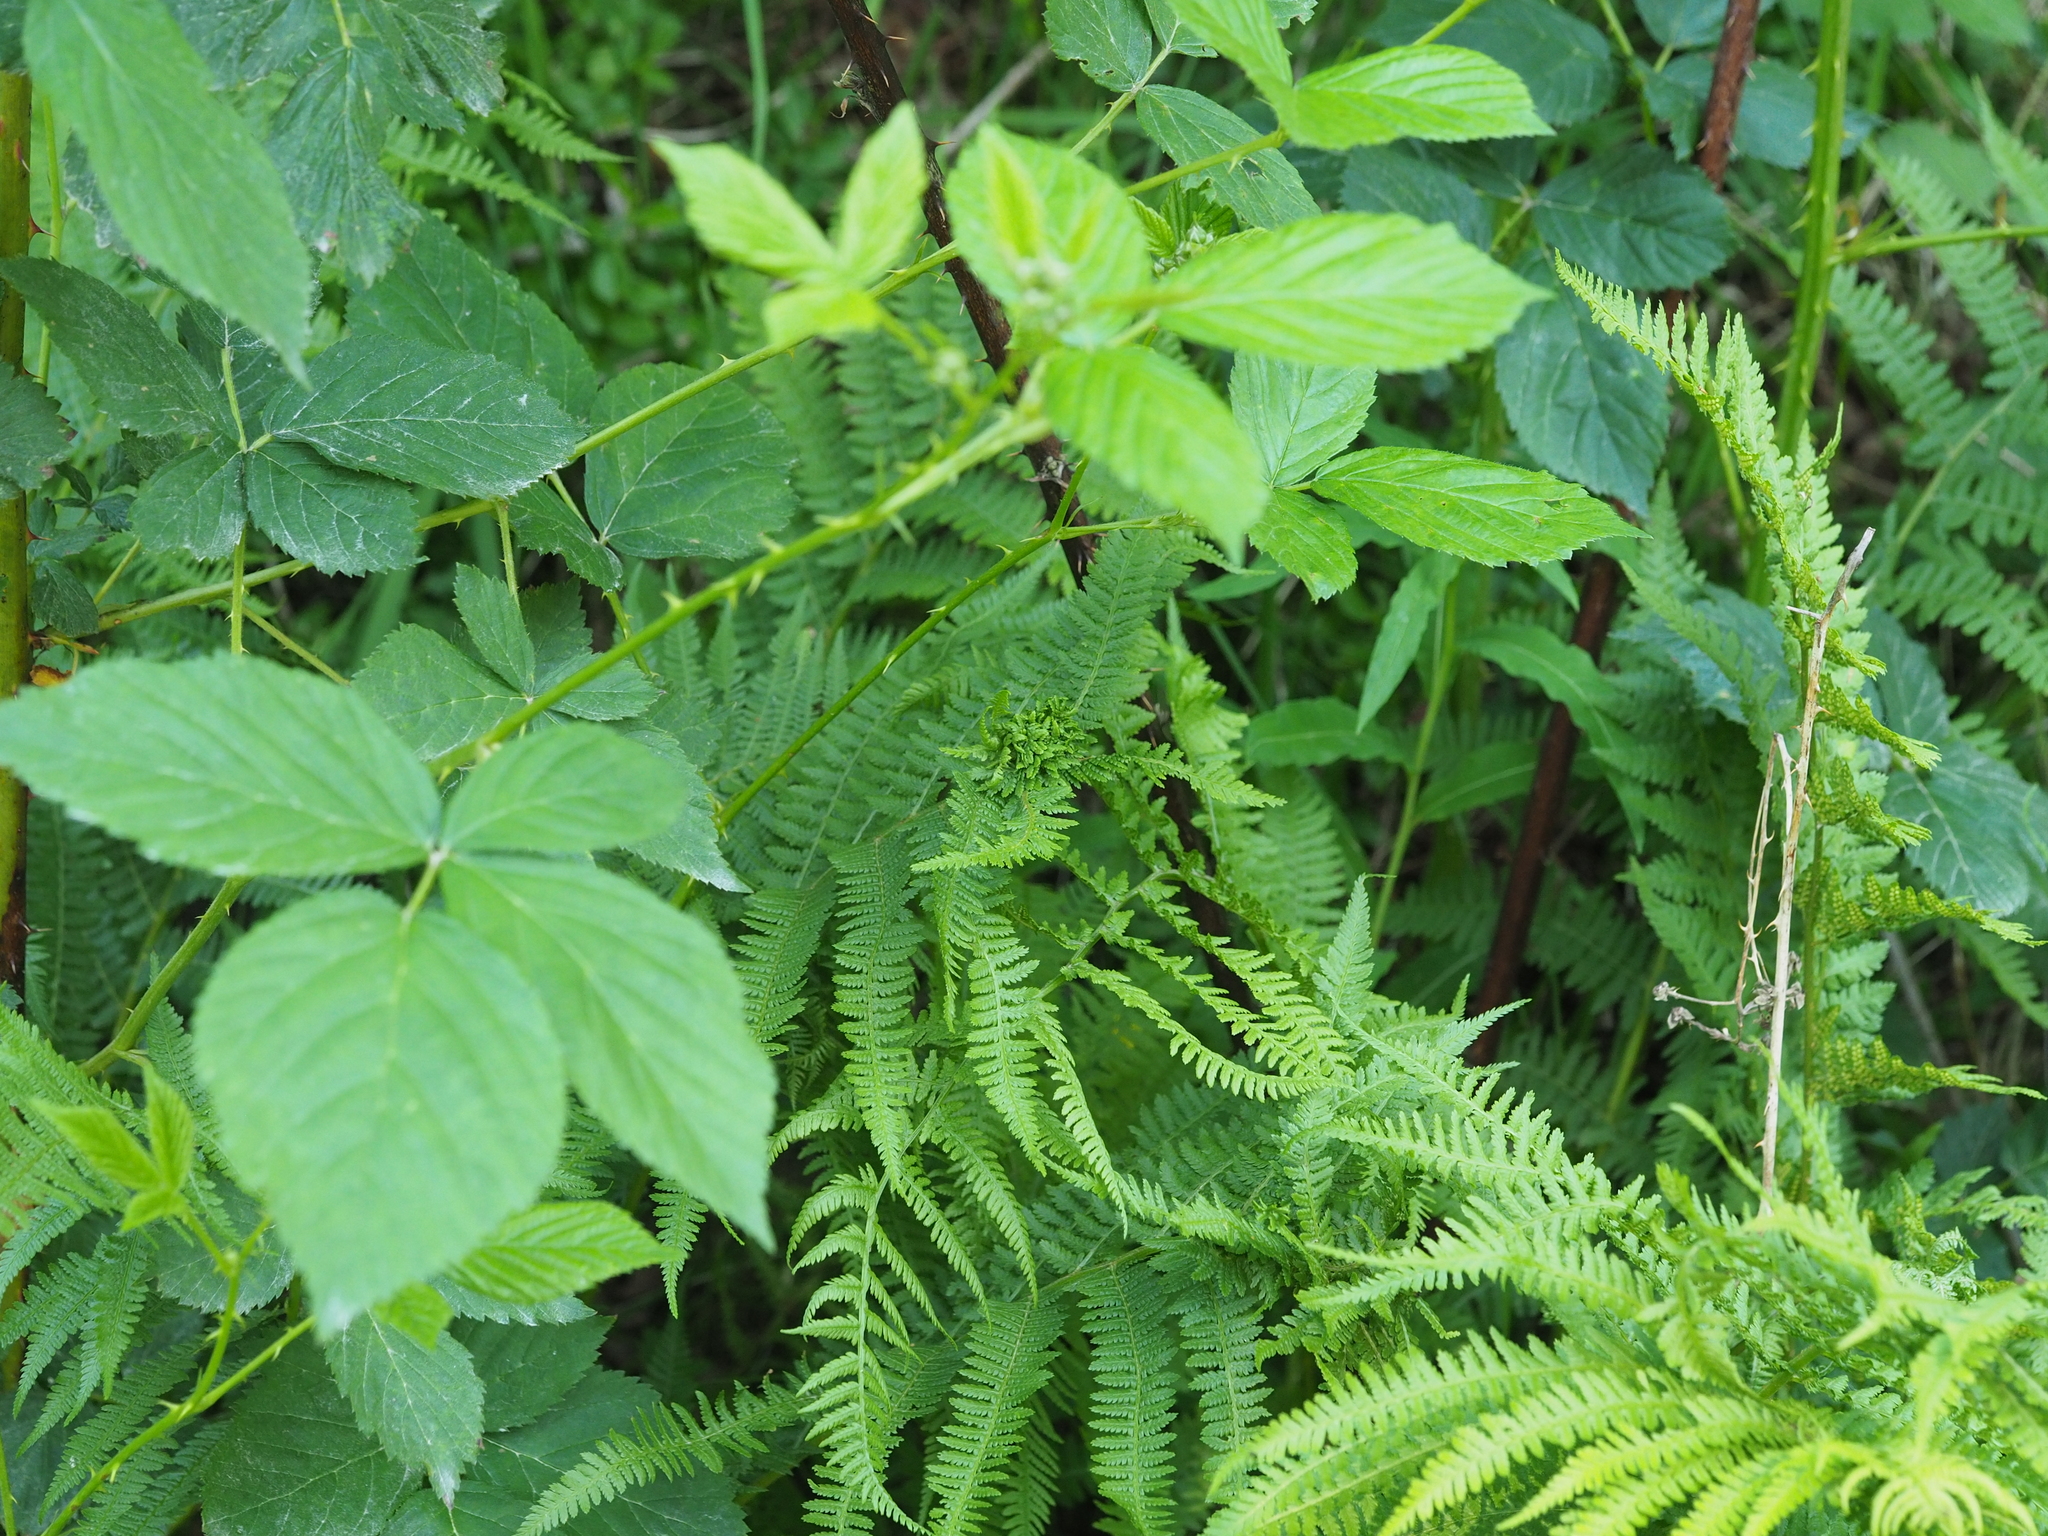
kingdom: Plantae
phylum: Tracheophyta
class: Polypodiopsida
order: Polypodiales
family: Athyriaceae
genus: Athyrium
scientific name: Athyrium filix-femina
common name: Lady fern
